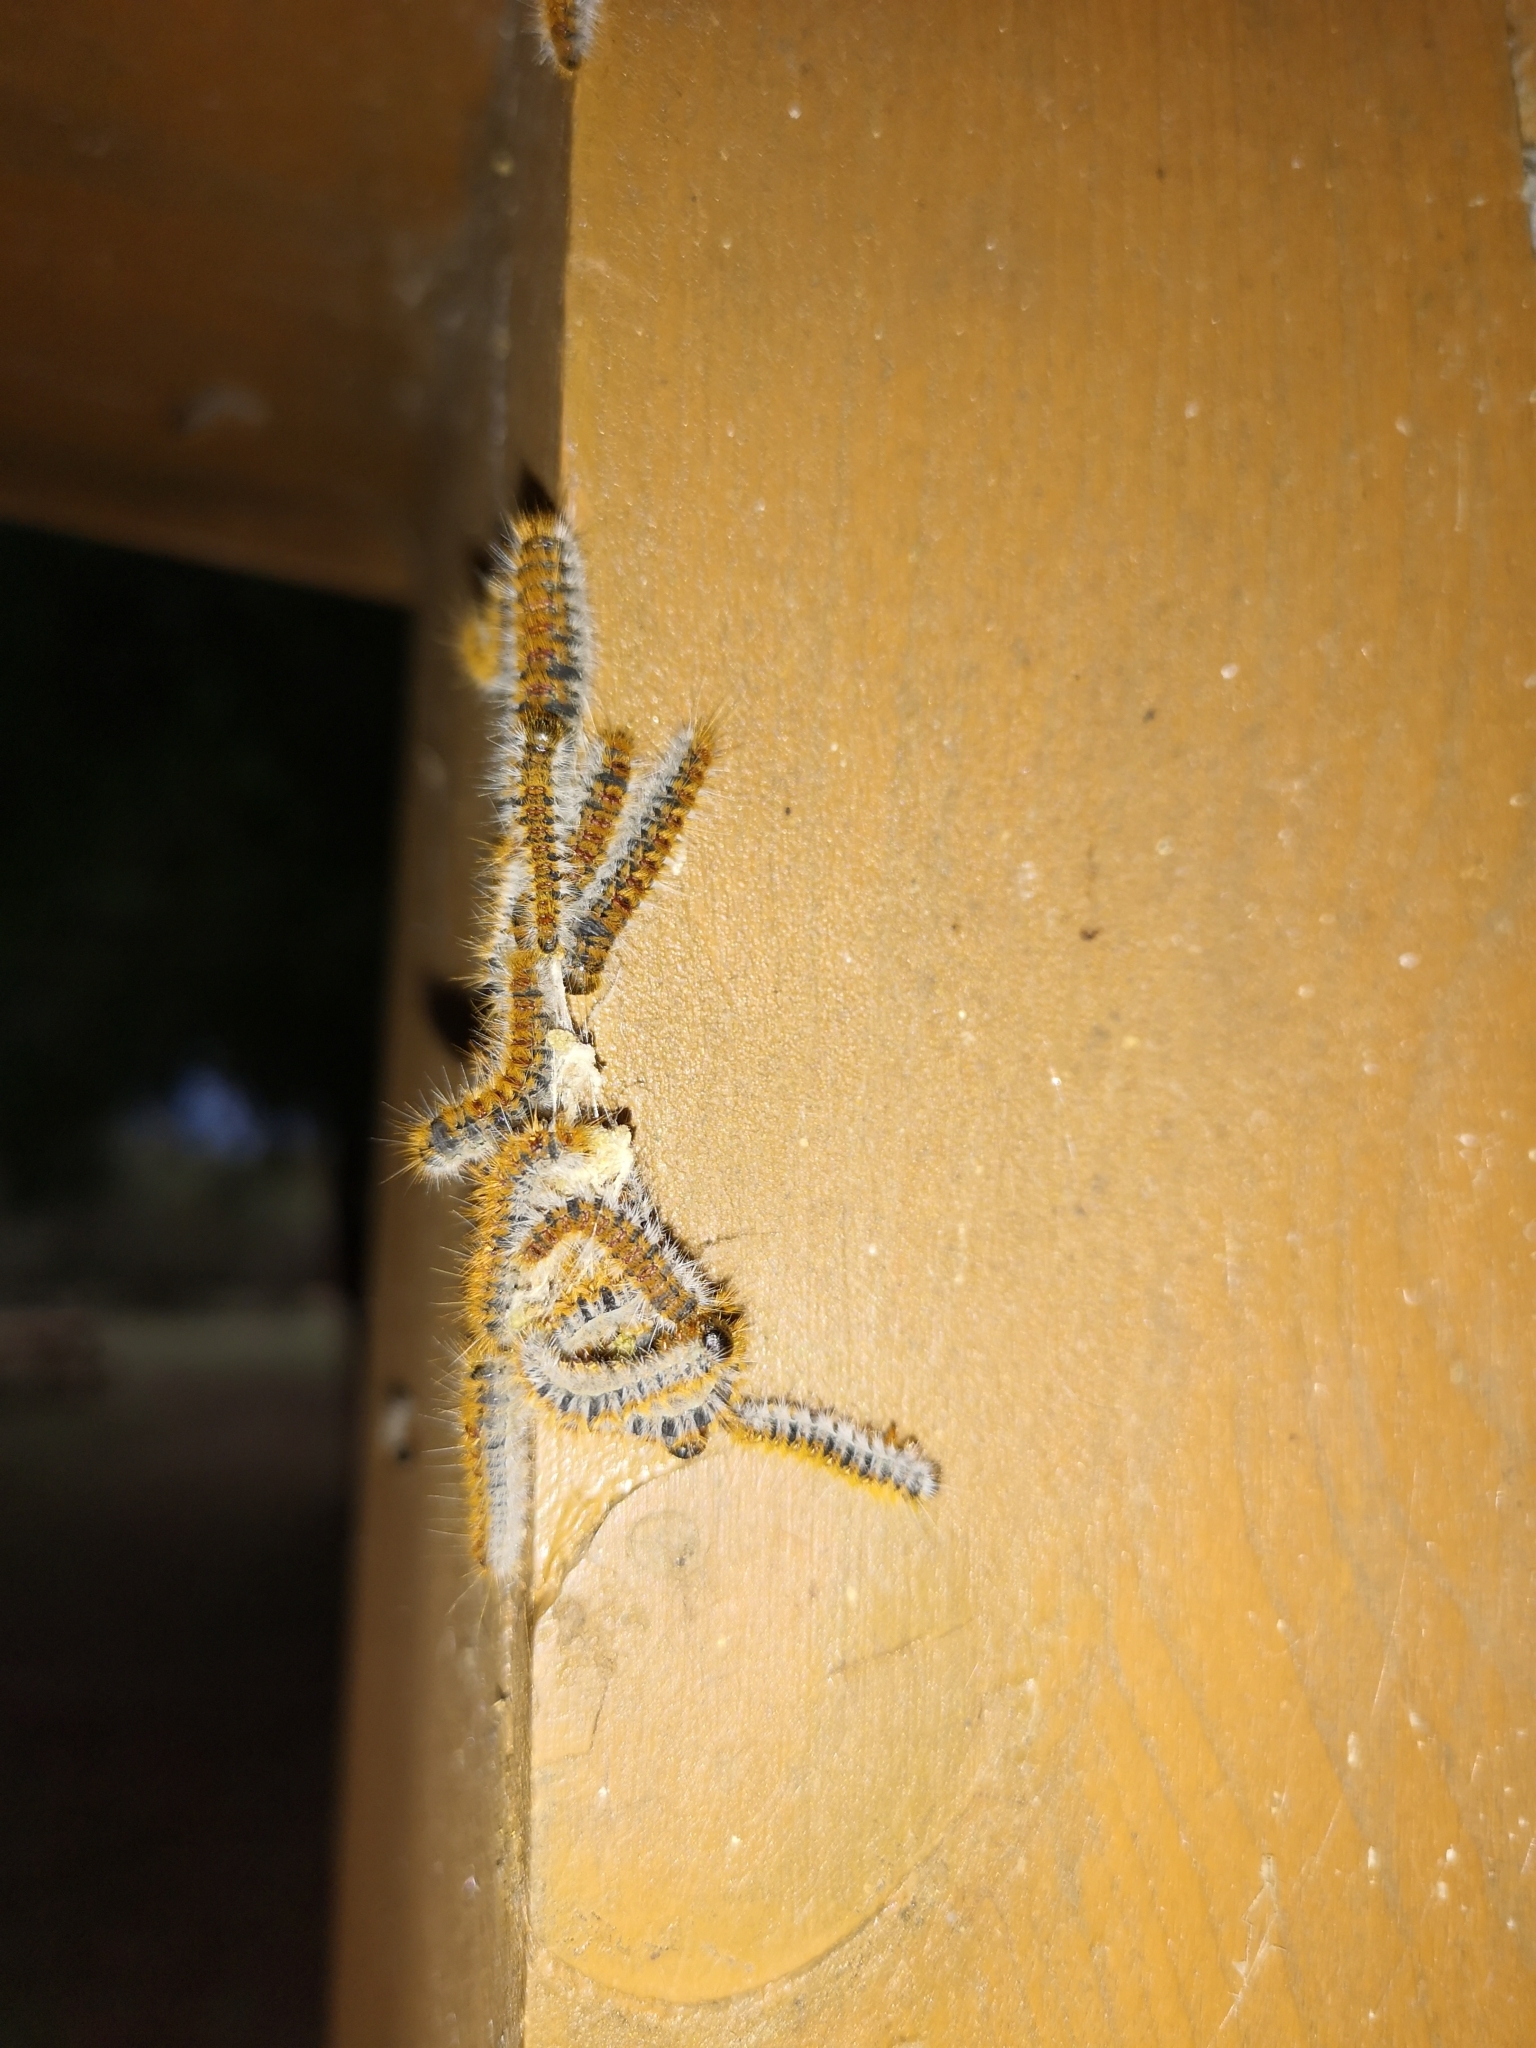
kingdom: Animalia
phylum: Arthropoda
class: Insecta
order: Lepidoptera
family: Notodontidae
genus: Thaumetopoea
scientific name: Thaumetopoea pityocampa
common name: Pine processionary
